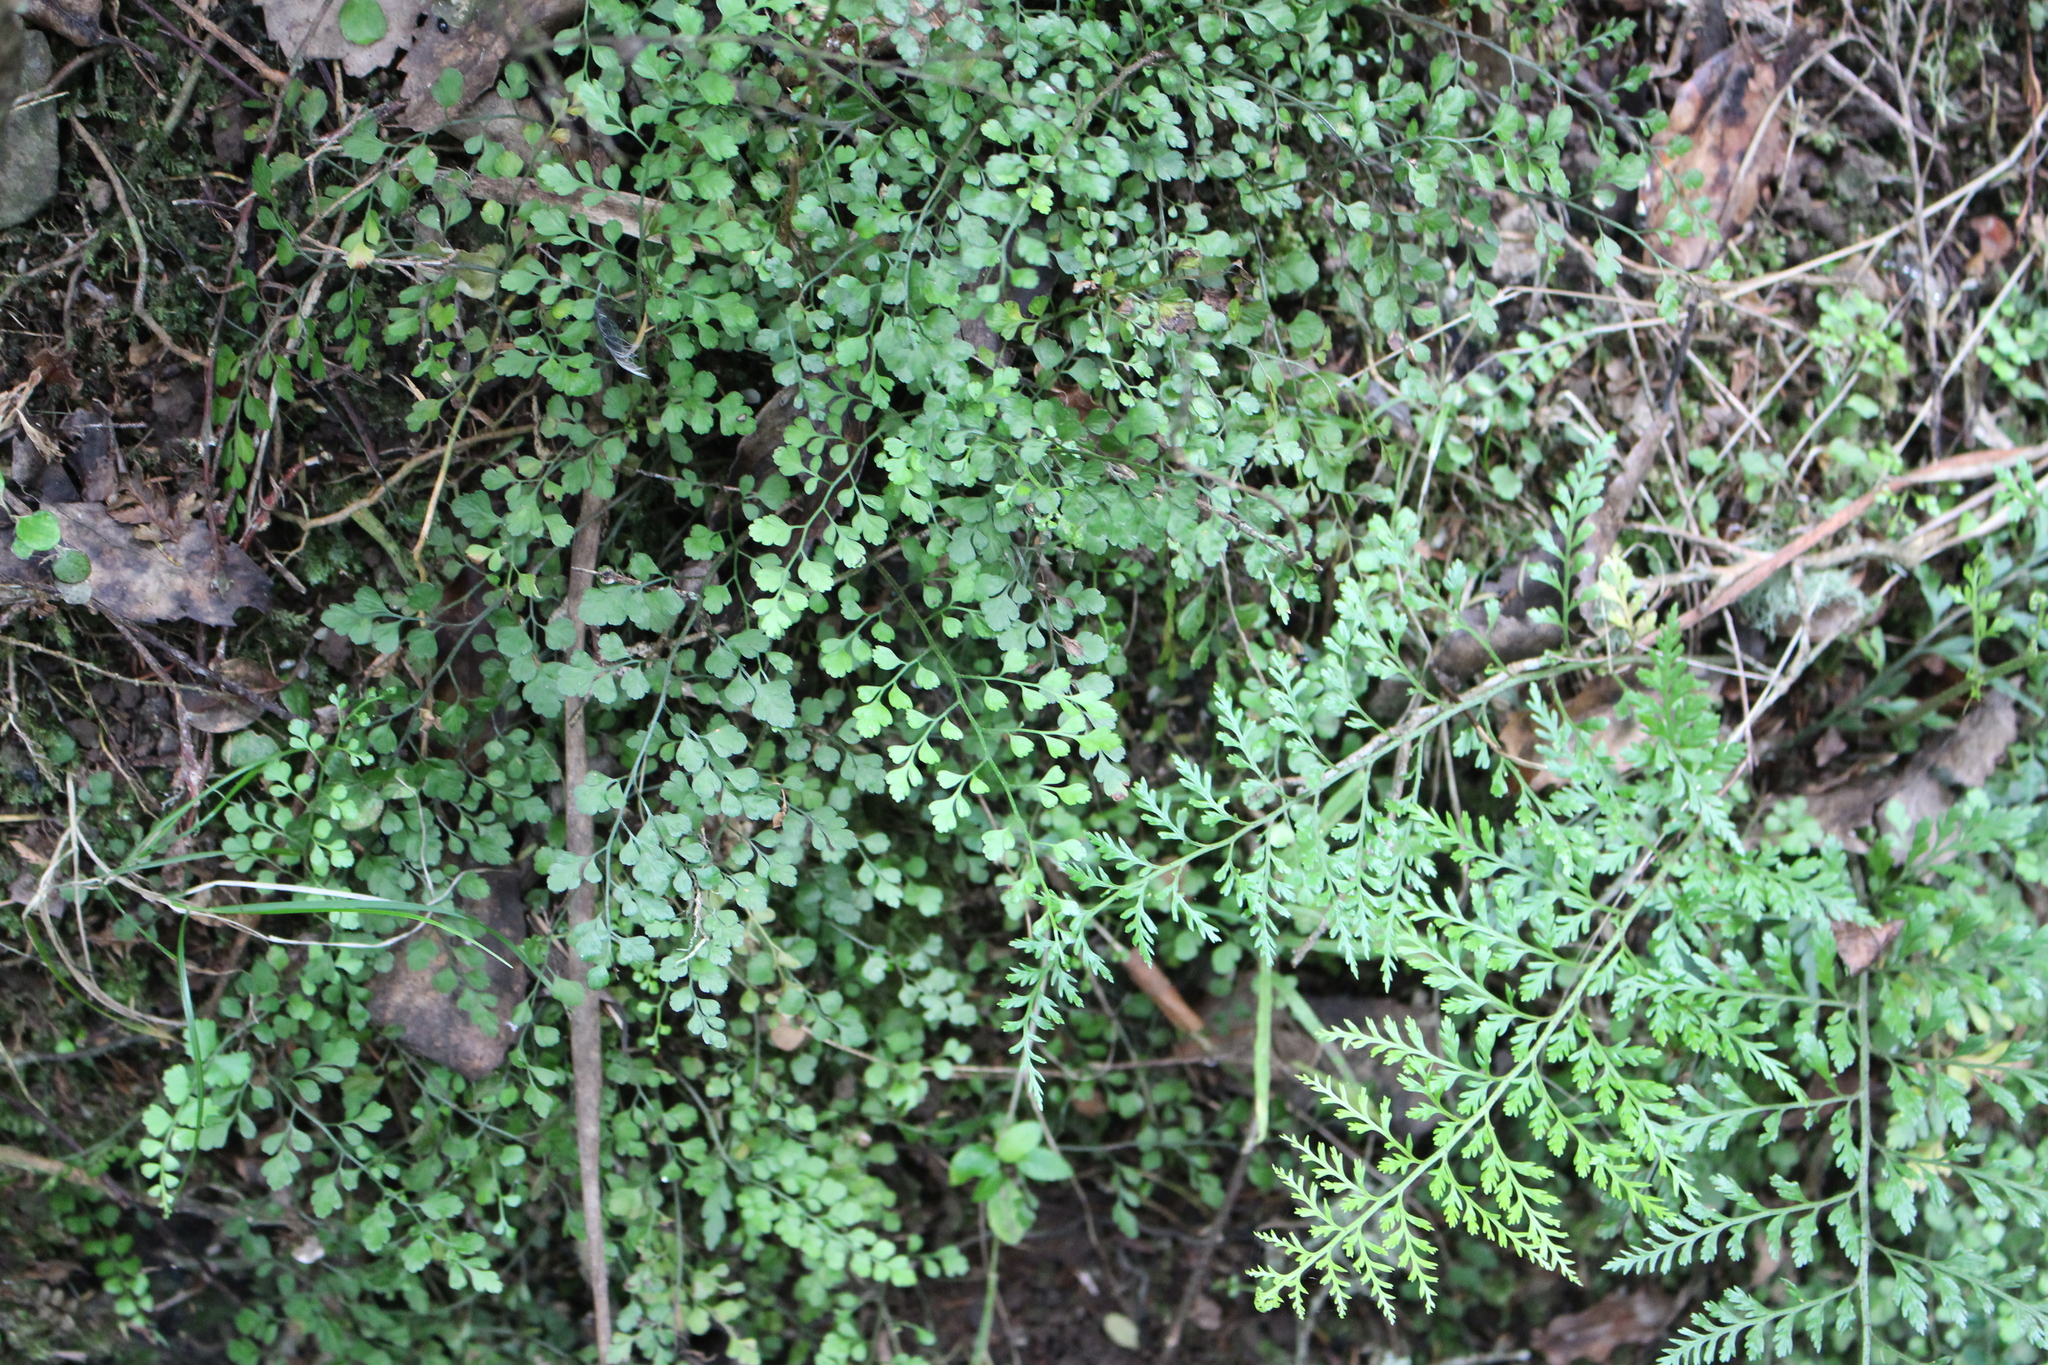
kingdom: Plantae
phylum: Tracheophyta
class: Polypodiopsida
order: Polypodiales
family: Aspleniaceae
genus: Asplenium
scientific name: Asplenium hookerianum
